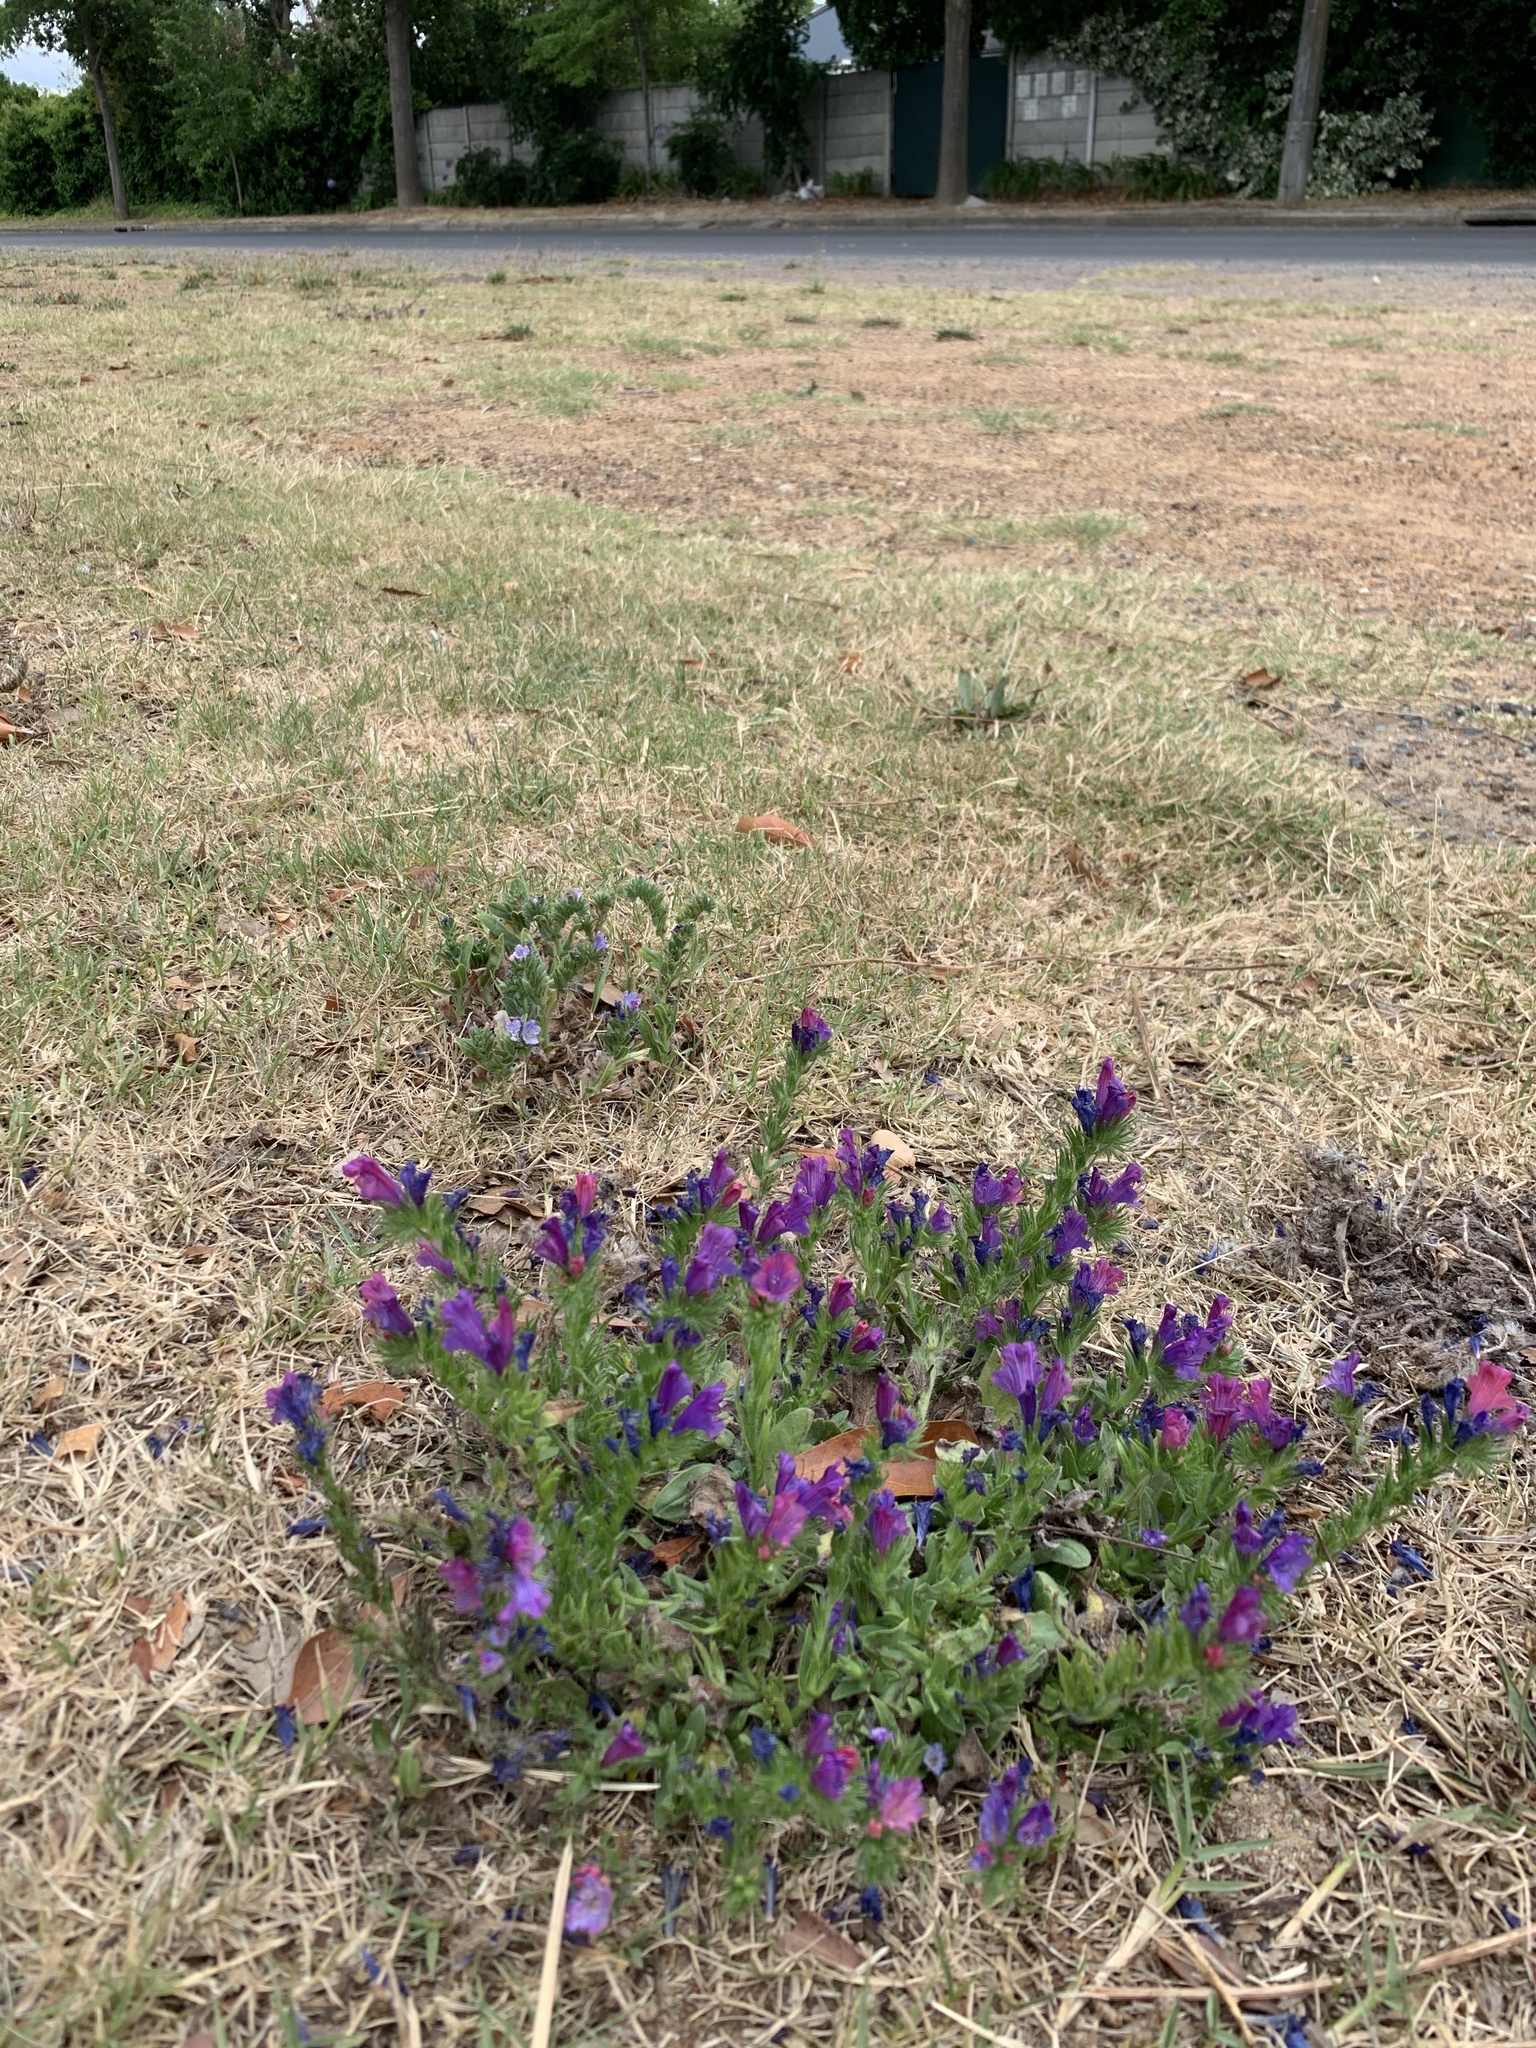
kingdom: Plantae
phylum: Tracheophyta
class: Magnoliopsida
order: Boraginales
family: Boraginaceae
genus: Echium
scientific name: Echium plantagineum
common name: Purple viper's-bugloss
